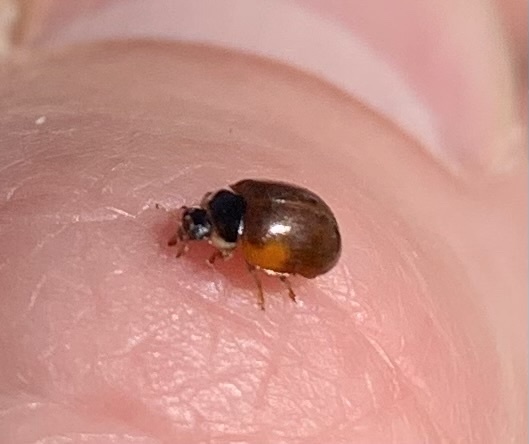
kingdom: Animalia
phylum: Arthropoda
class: Insecta
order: Coleoptera
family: Coccinellidae
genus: Adalia
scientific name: Adalia decempunctata
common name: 10-spot ladybird
